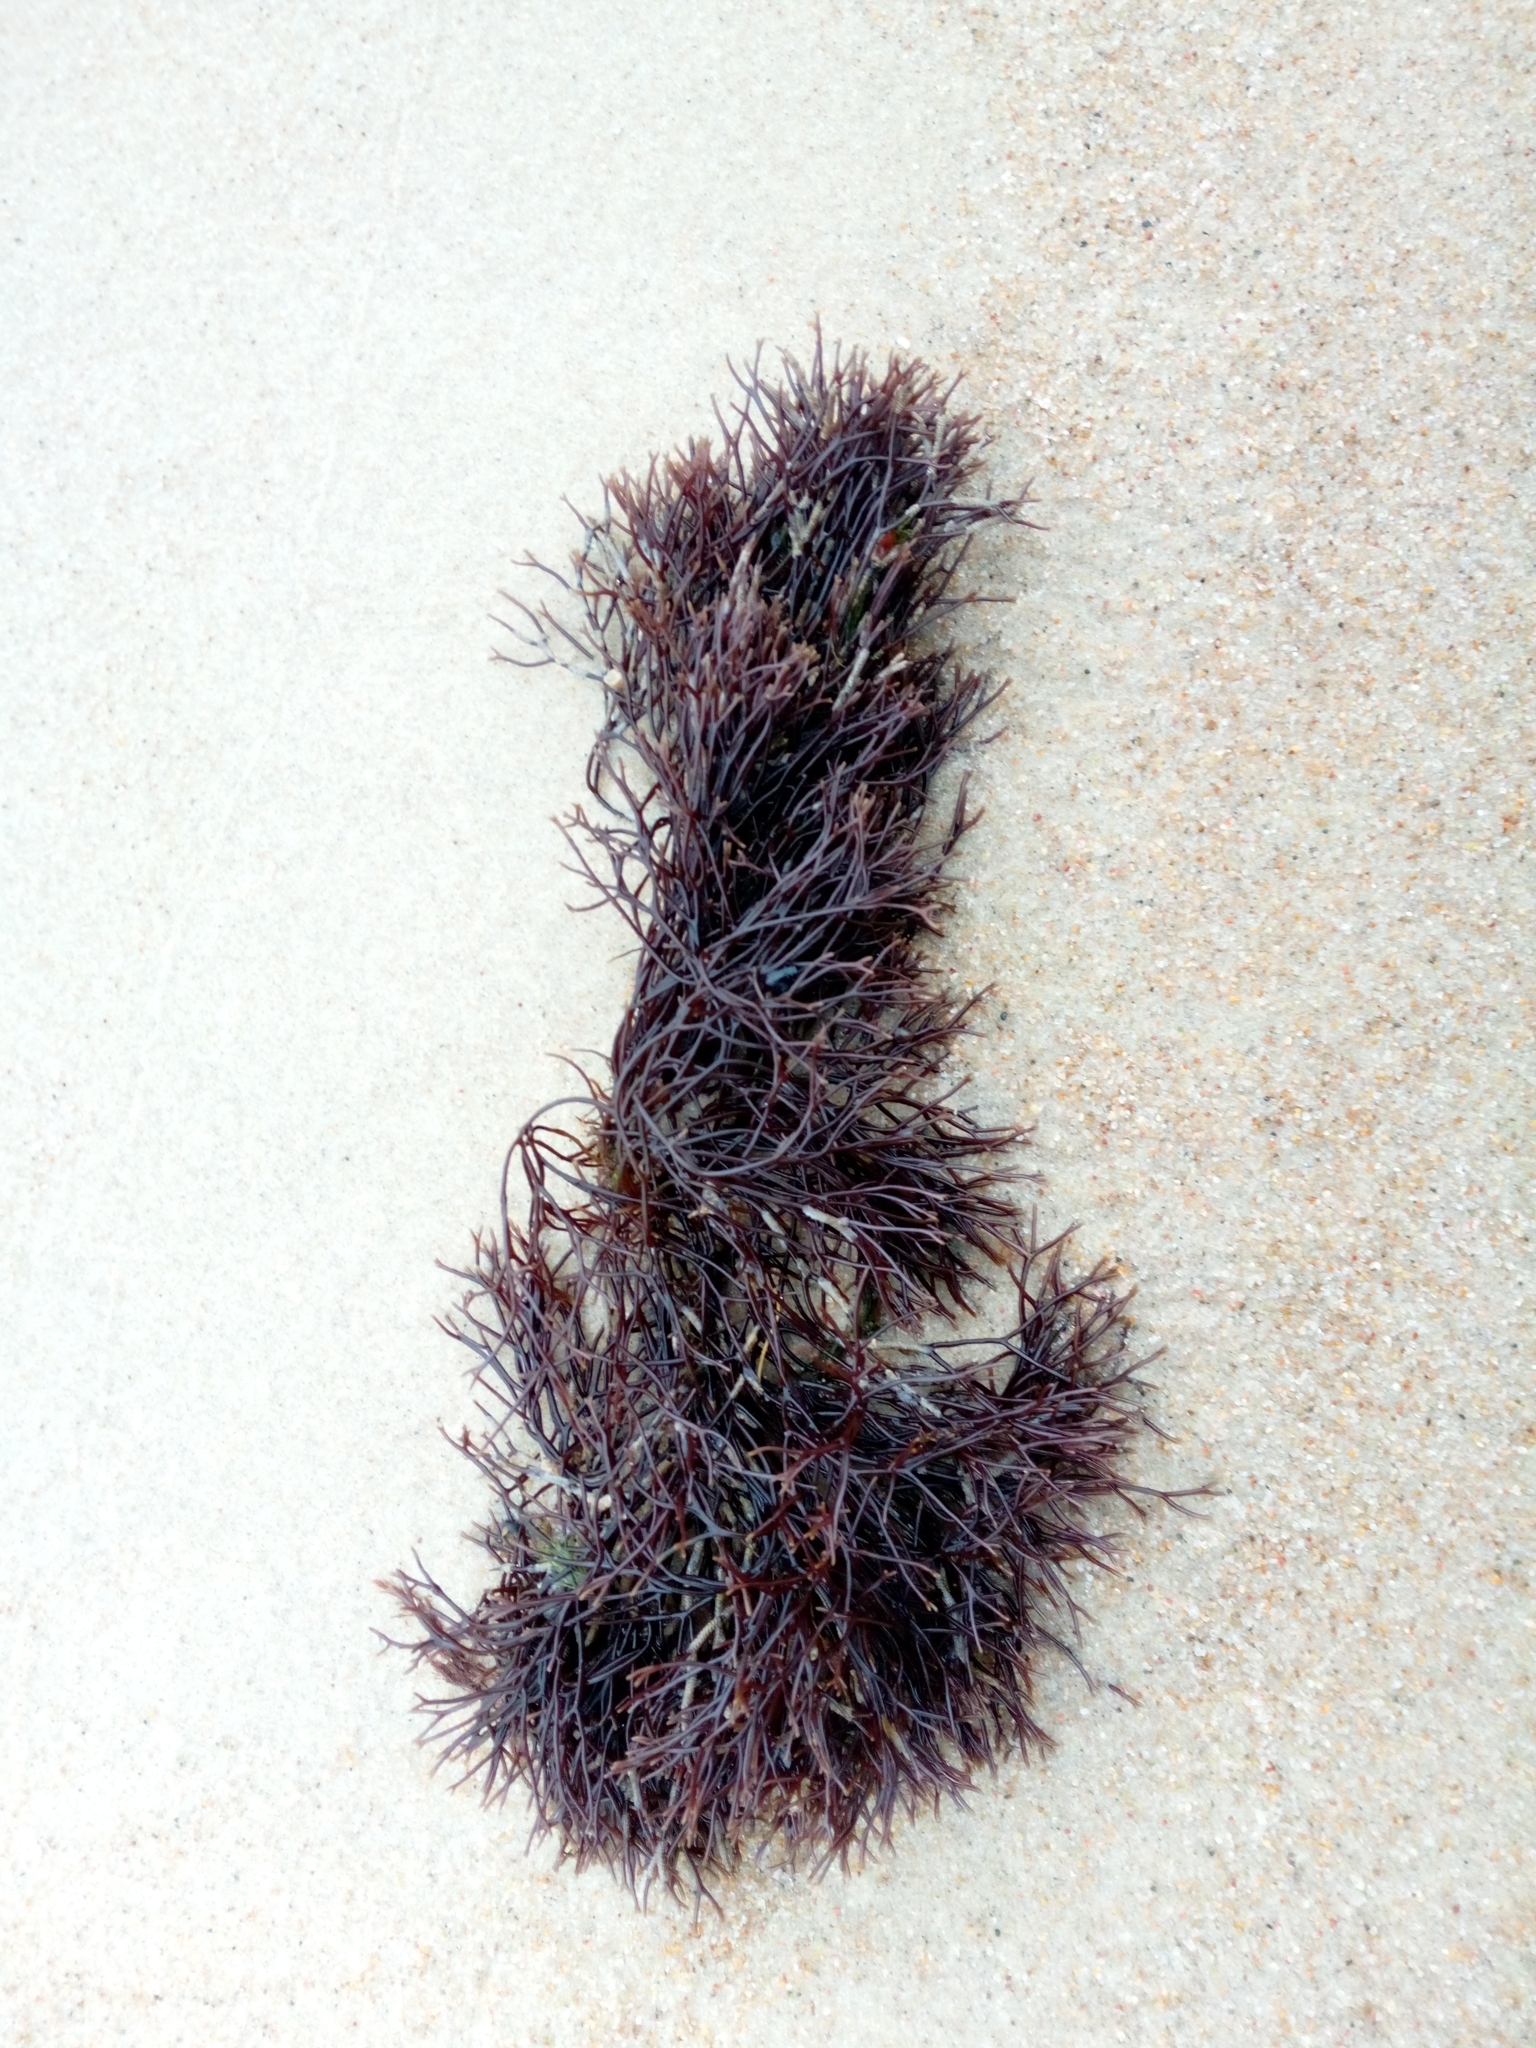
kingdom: Plantae
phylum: Rhodophyta
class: Florideophyceae
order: Gigartinales
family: Furcellariaceae
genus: Furcellaria
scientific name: Furcellaria lumbricalis
